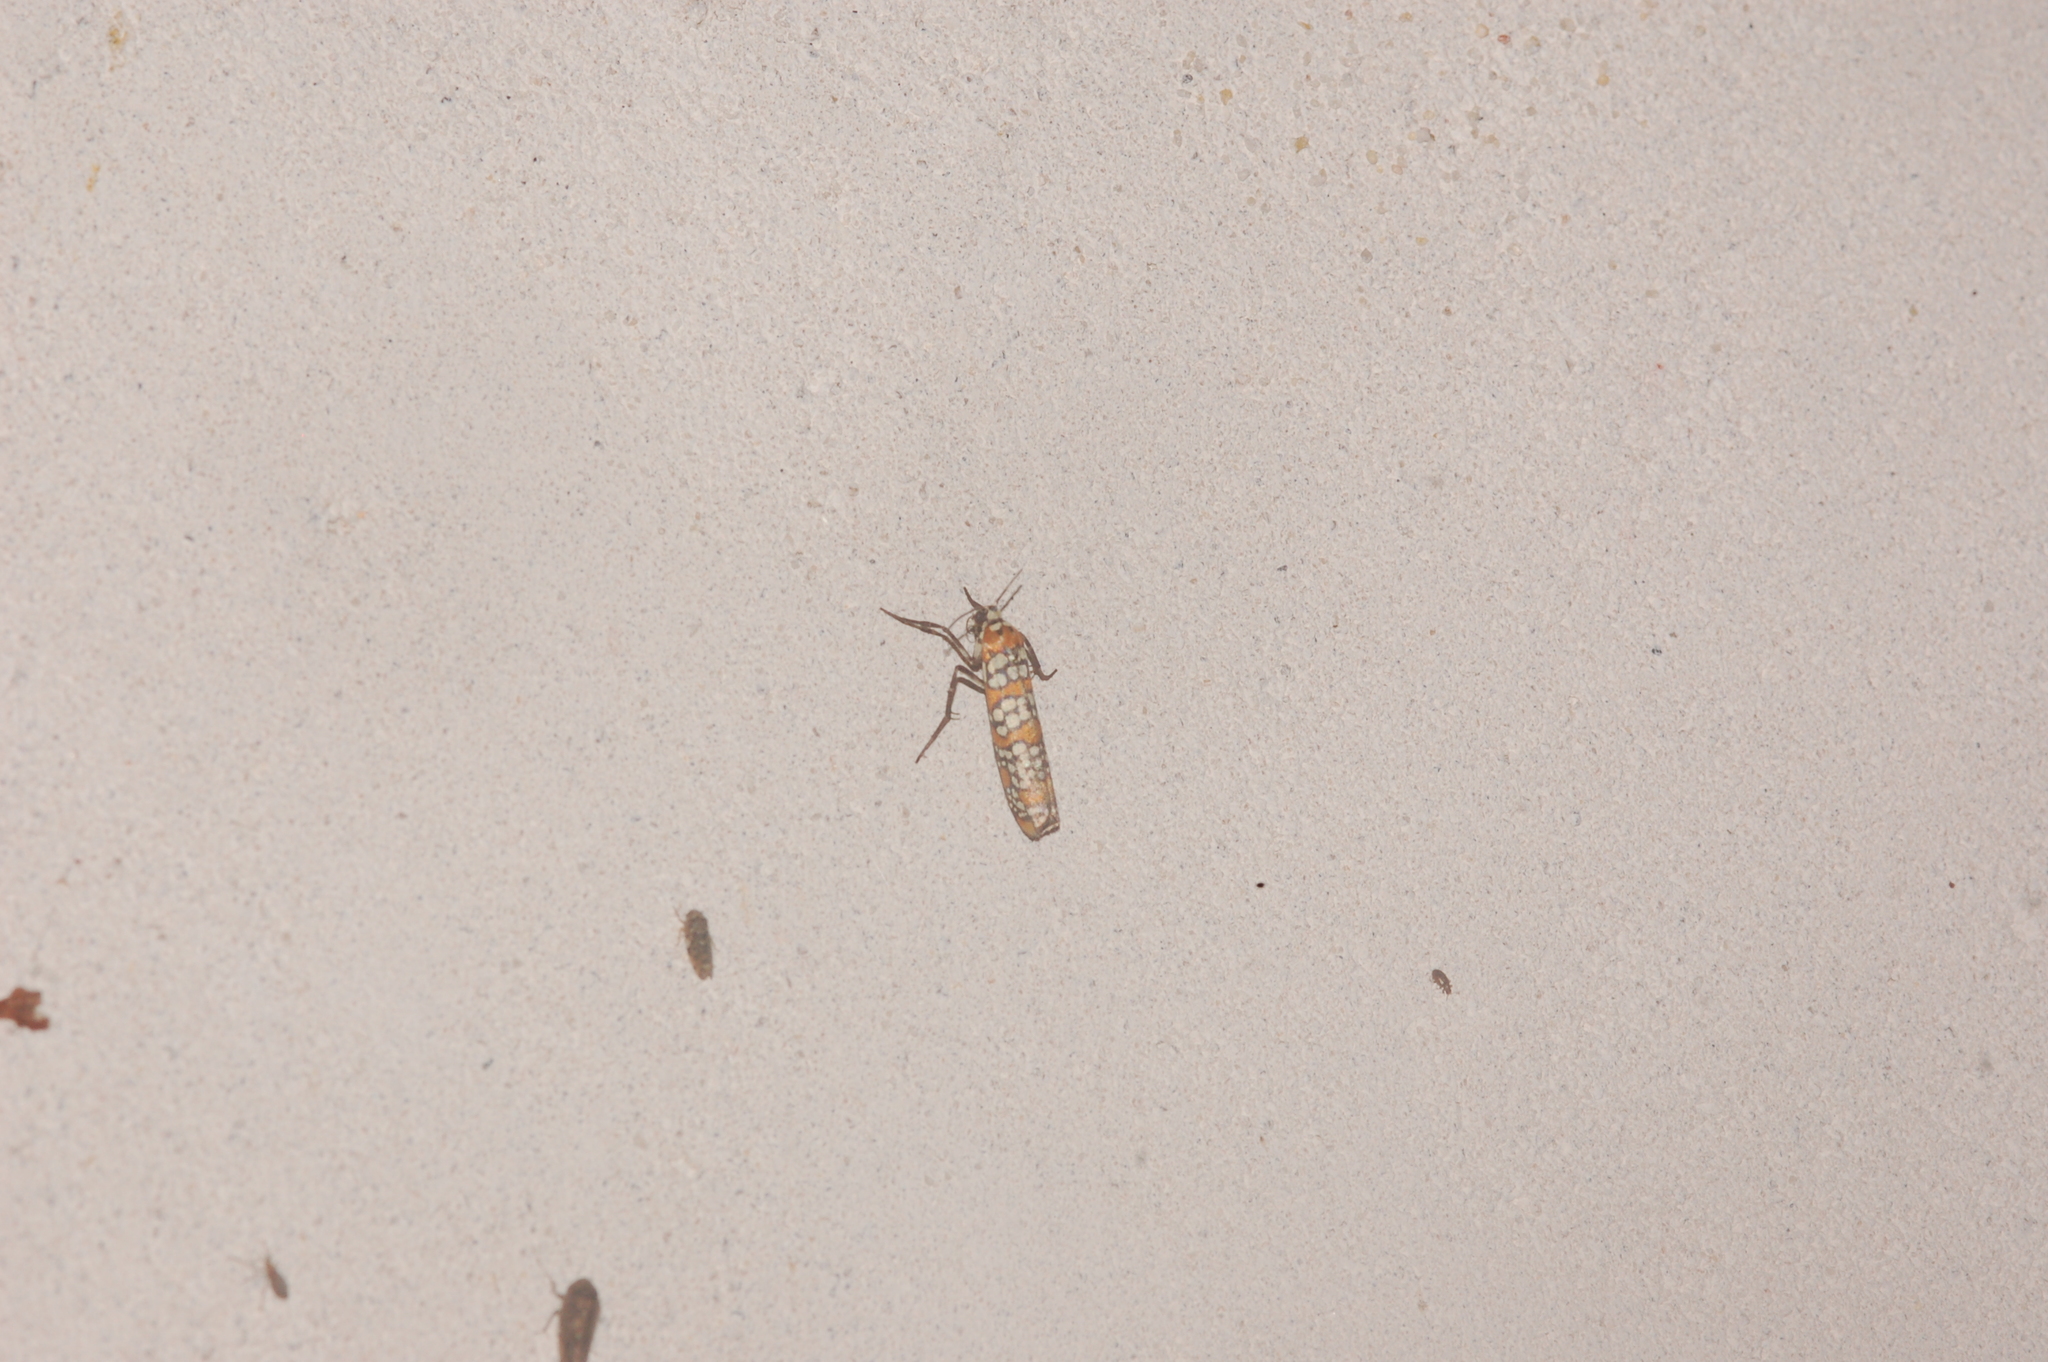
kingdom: Animalia
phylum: Arthropoda
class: Insecta
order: Lepidoptera
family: Attevidae
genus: Atteva
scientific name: Atteva punctella
